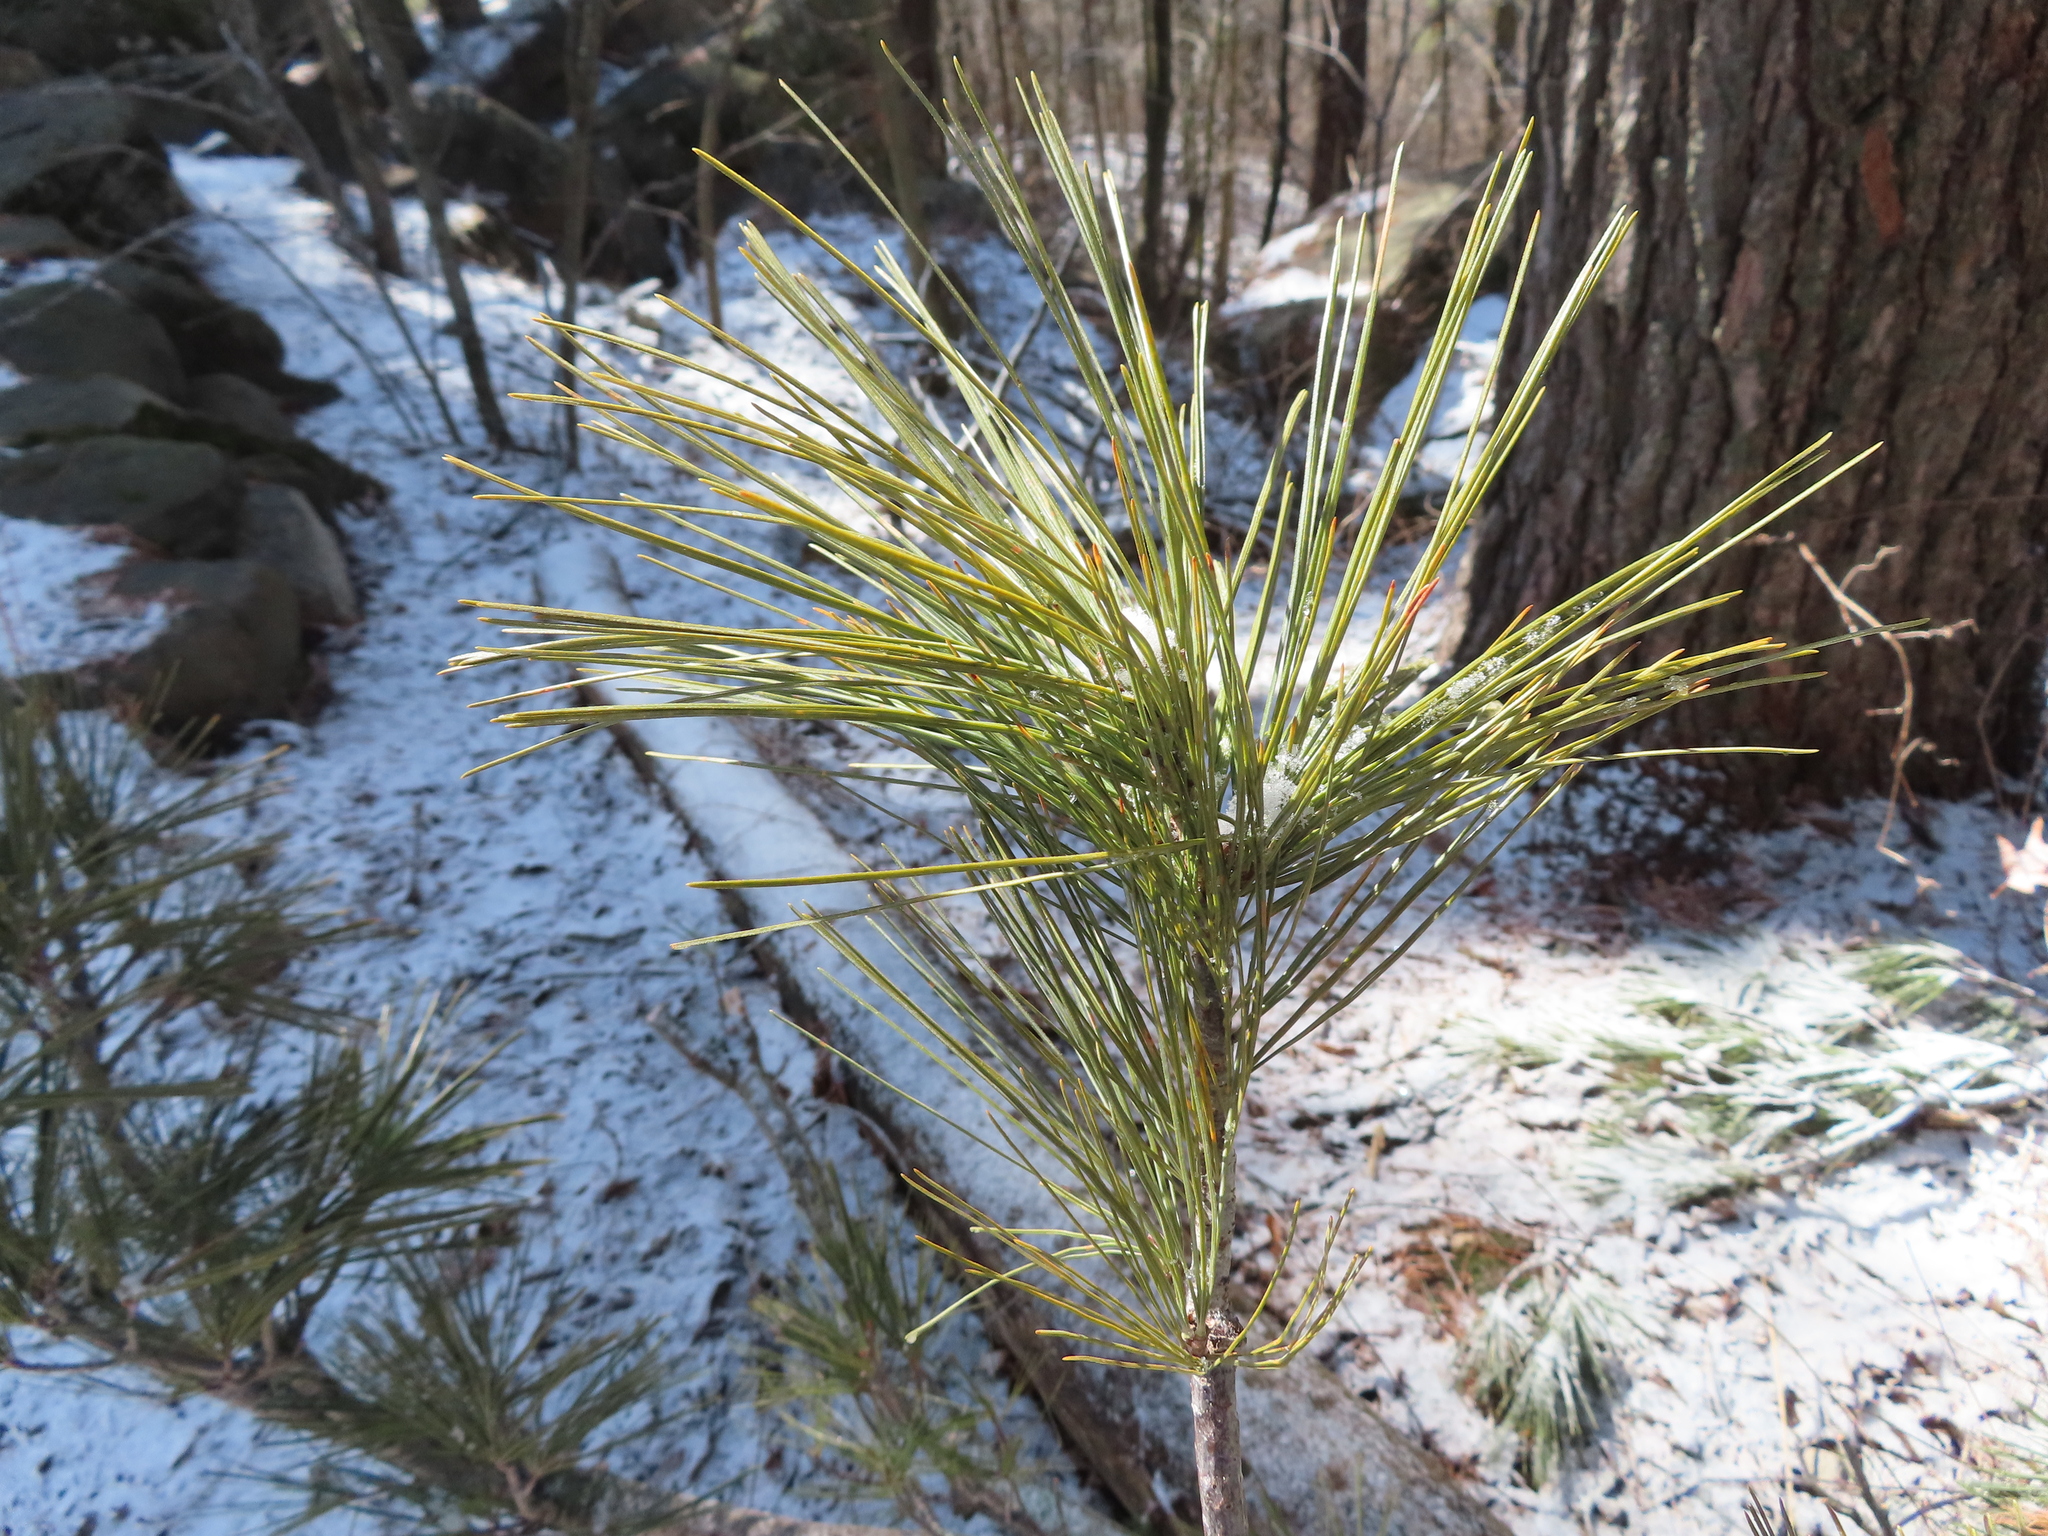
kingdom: Plantae
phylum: Tracheophyta
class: Pinopsida
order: Pinales
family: Pinaceae
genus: Pinus
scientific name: Pinus strobus
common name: Weymouth pine
